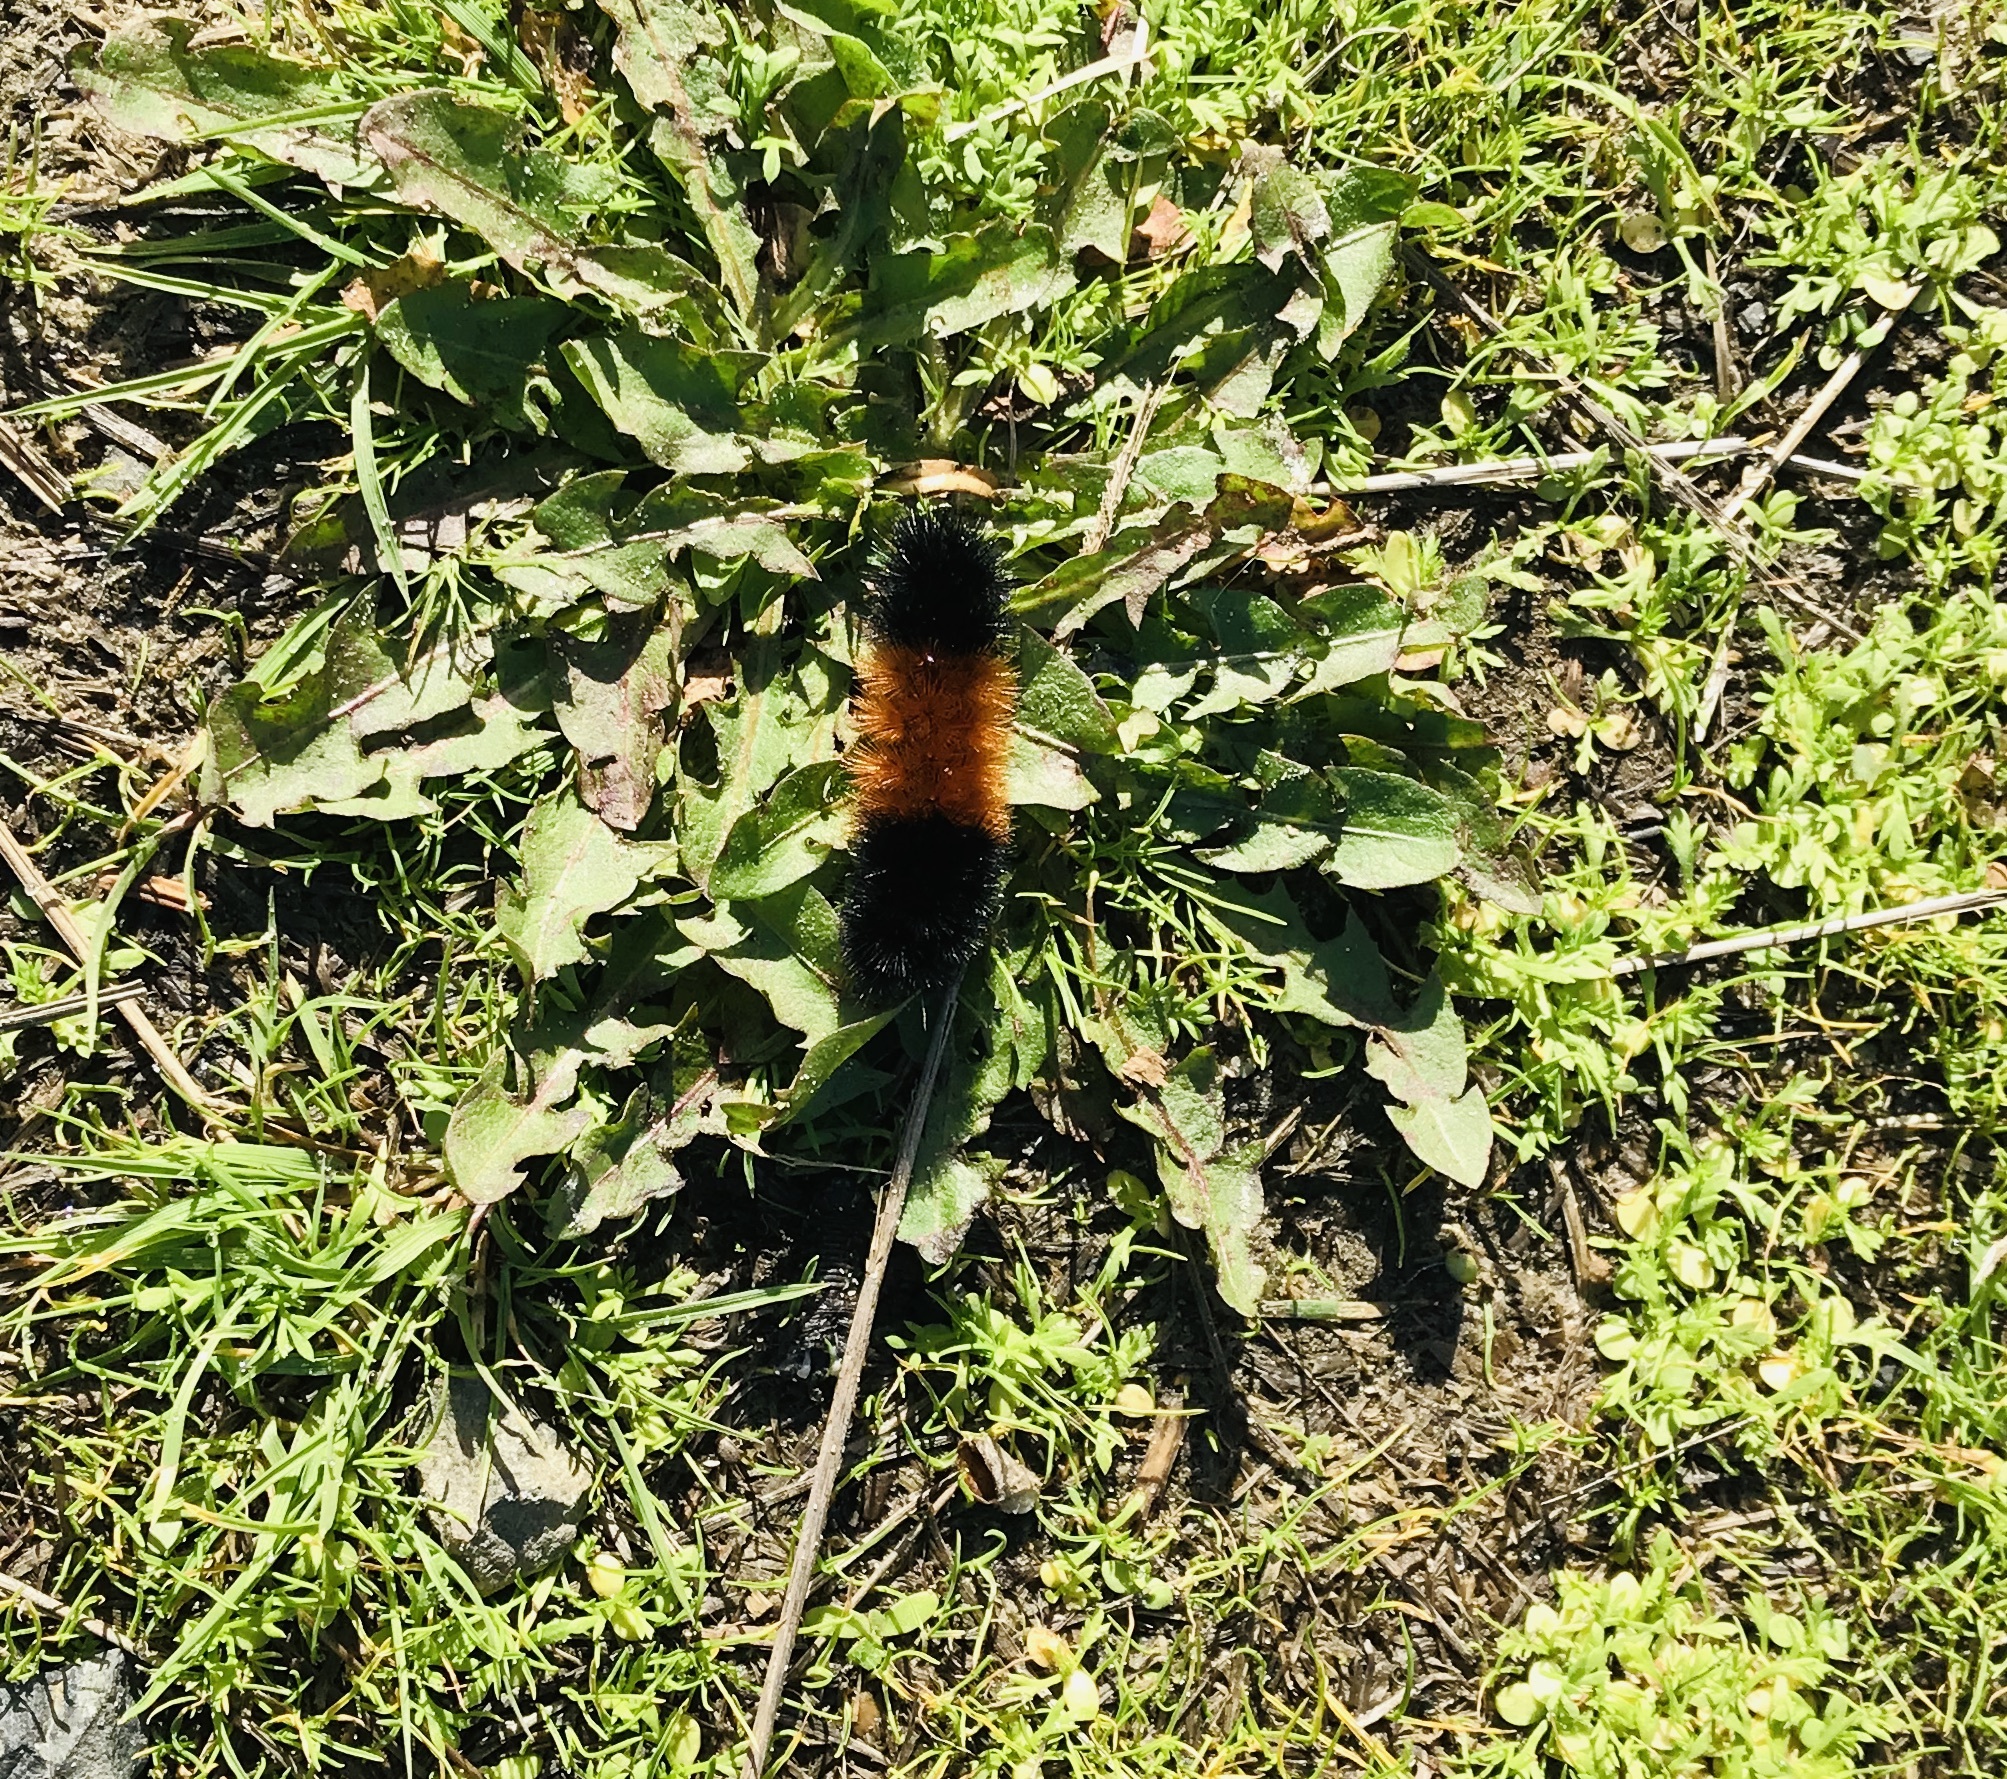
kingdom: Animalia
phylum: Arthropoda
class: Insecta
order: Lepidoptera
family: Erebidae
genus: Pyrrharctia
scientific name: Pyrrharctia isabella
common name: Isabella tiger moth
